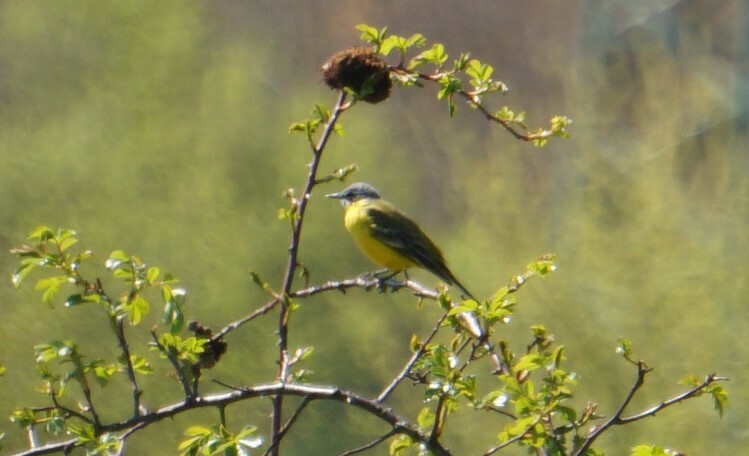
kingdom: Animalia
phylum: Chordata
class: Aves
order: Passeriformes
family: Motacillidae
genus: Motacilla
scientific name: Motacilla flava
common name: Western yellow wagtail
